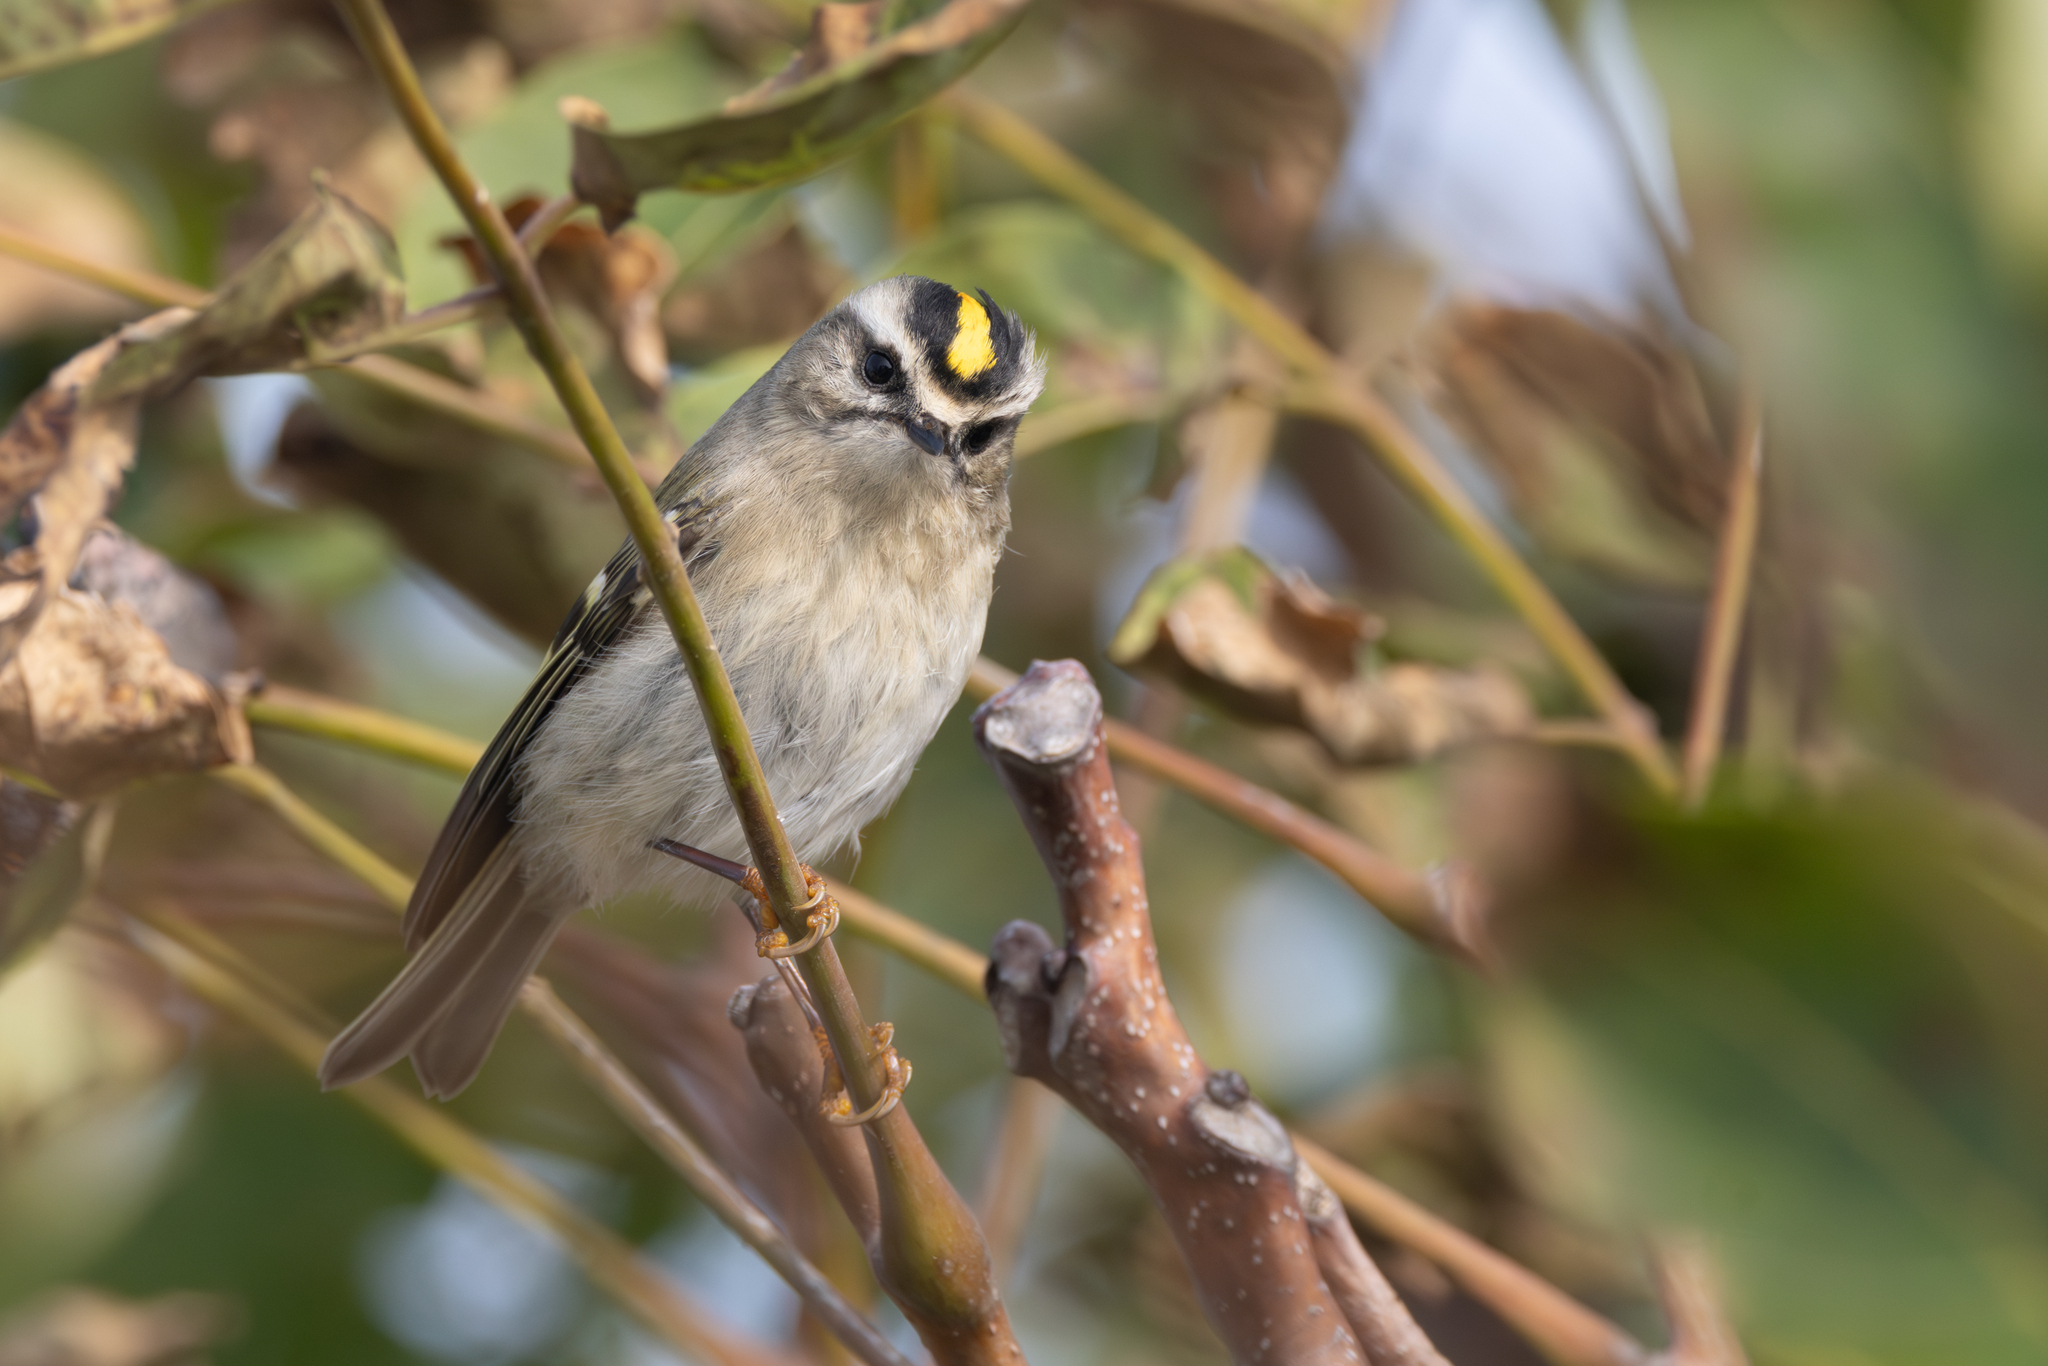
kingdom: Animalia
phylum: Chordata
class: Aves
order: Passeriformes
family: Regulidae
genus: Regulus
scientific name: Regulus satrapa
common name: Golden-crowned kinglet
